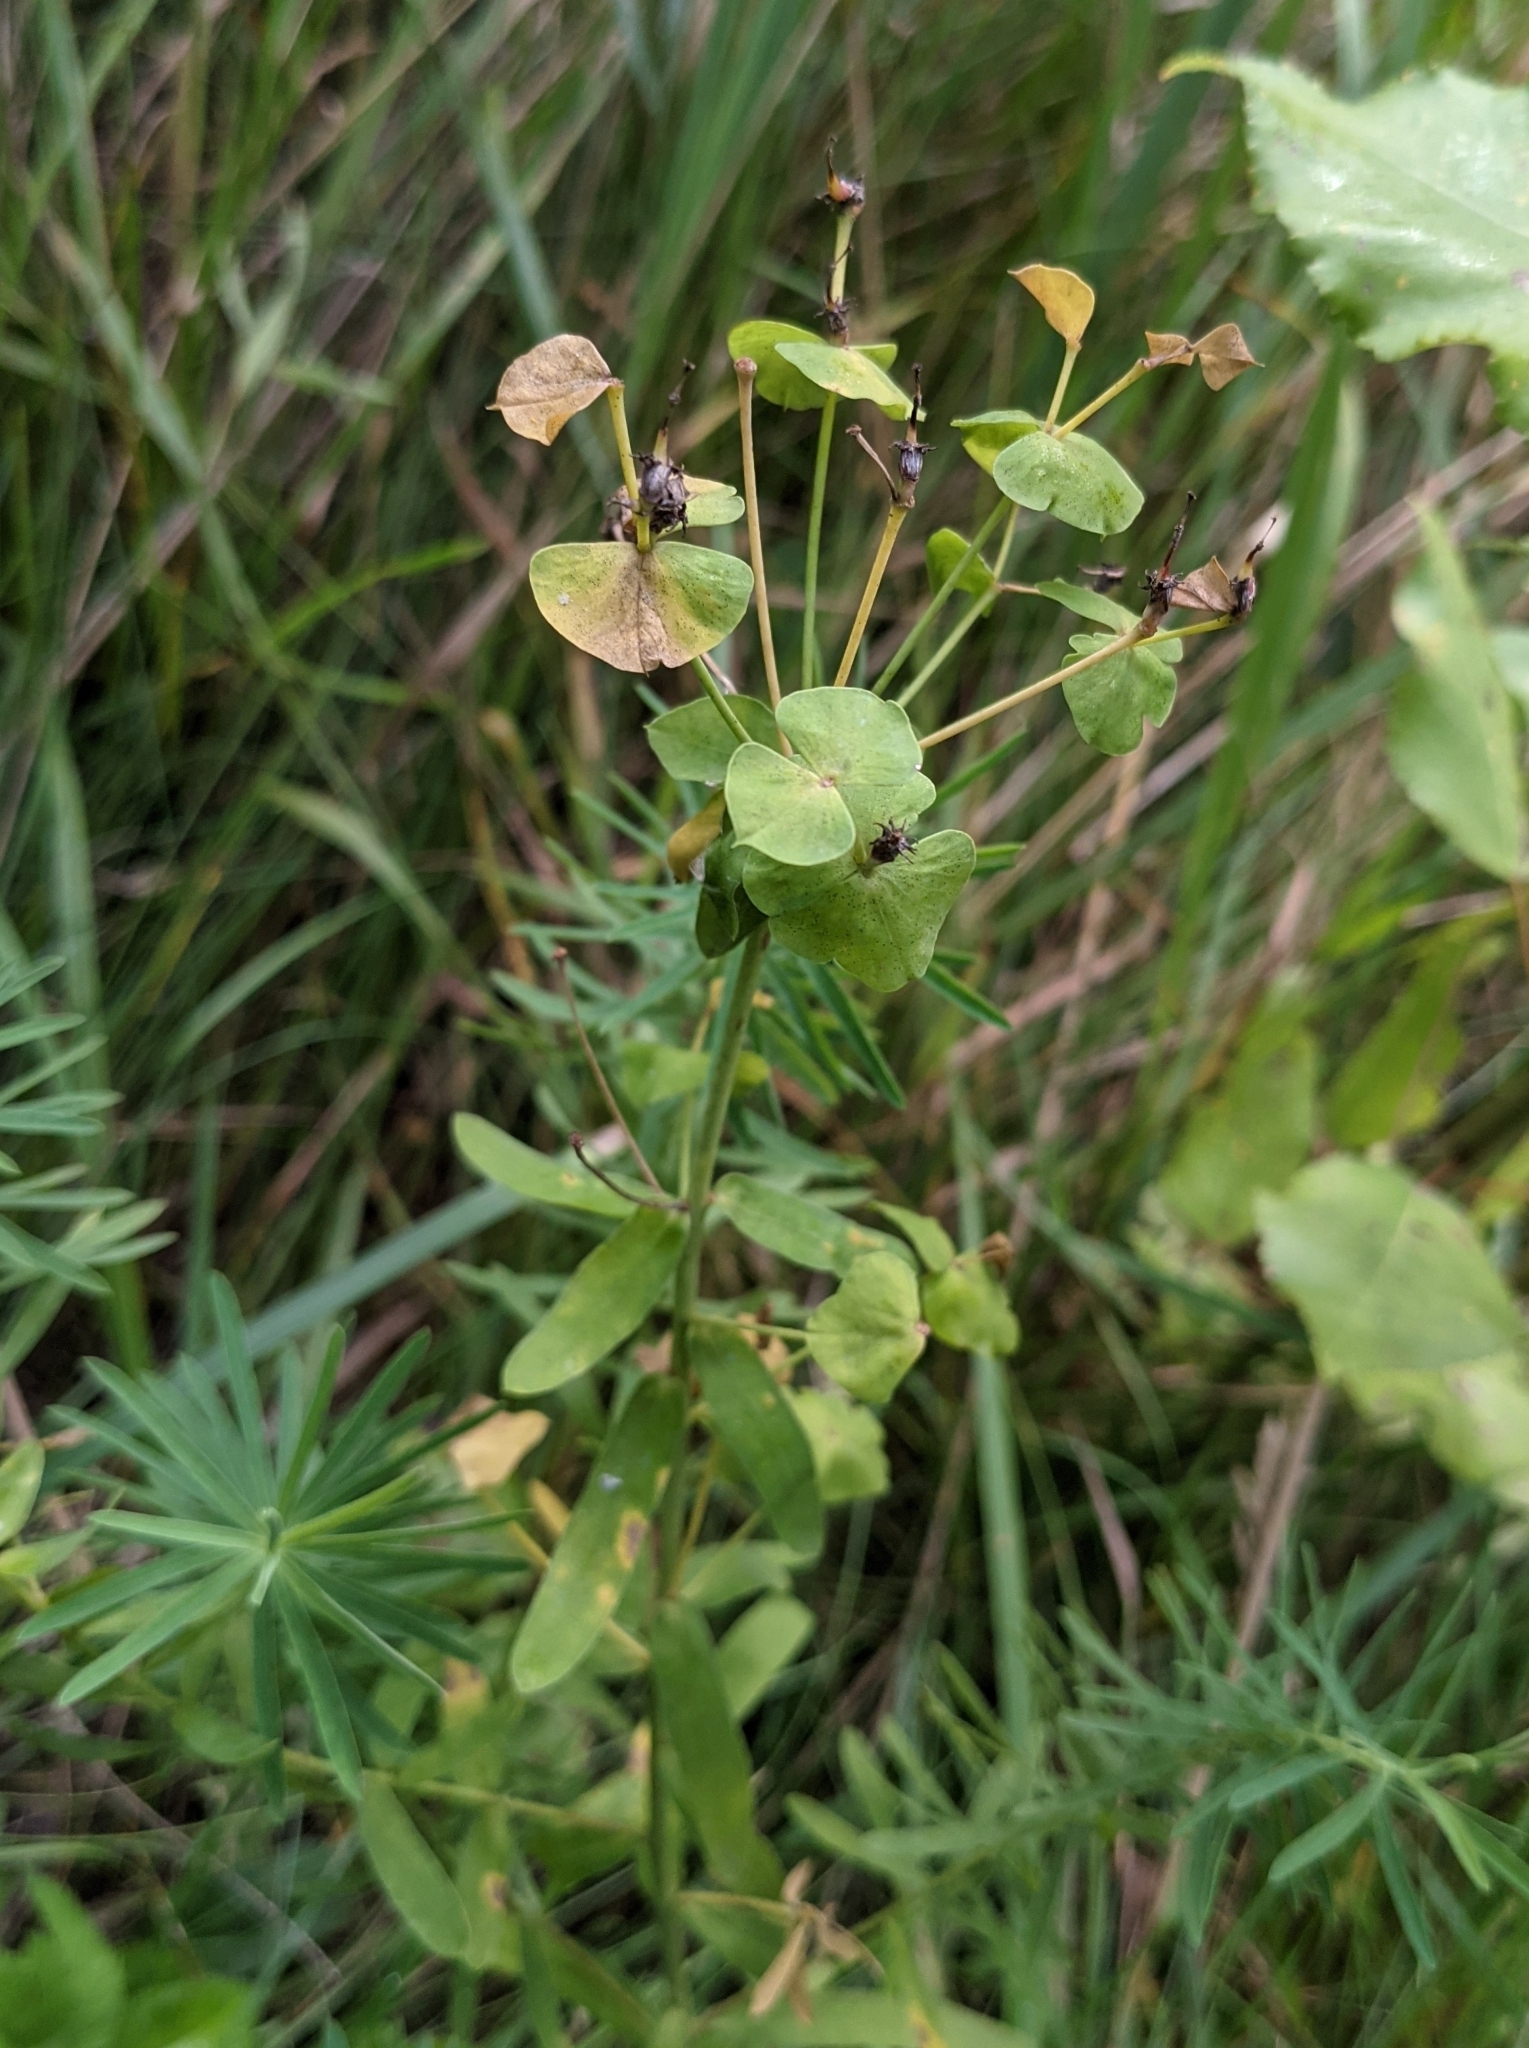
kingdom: Plantae
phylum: Tracheophyta
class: Magnoliopsida
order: Malpighiales
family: Euphorbiaceae
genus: Euphorbia
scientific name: Euphorbia virgata
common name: Leafy spurge
